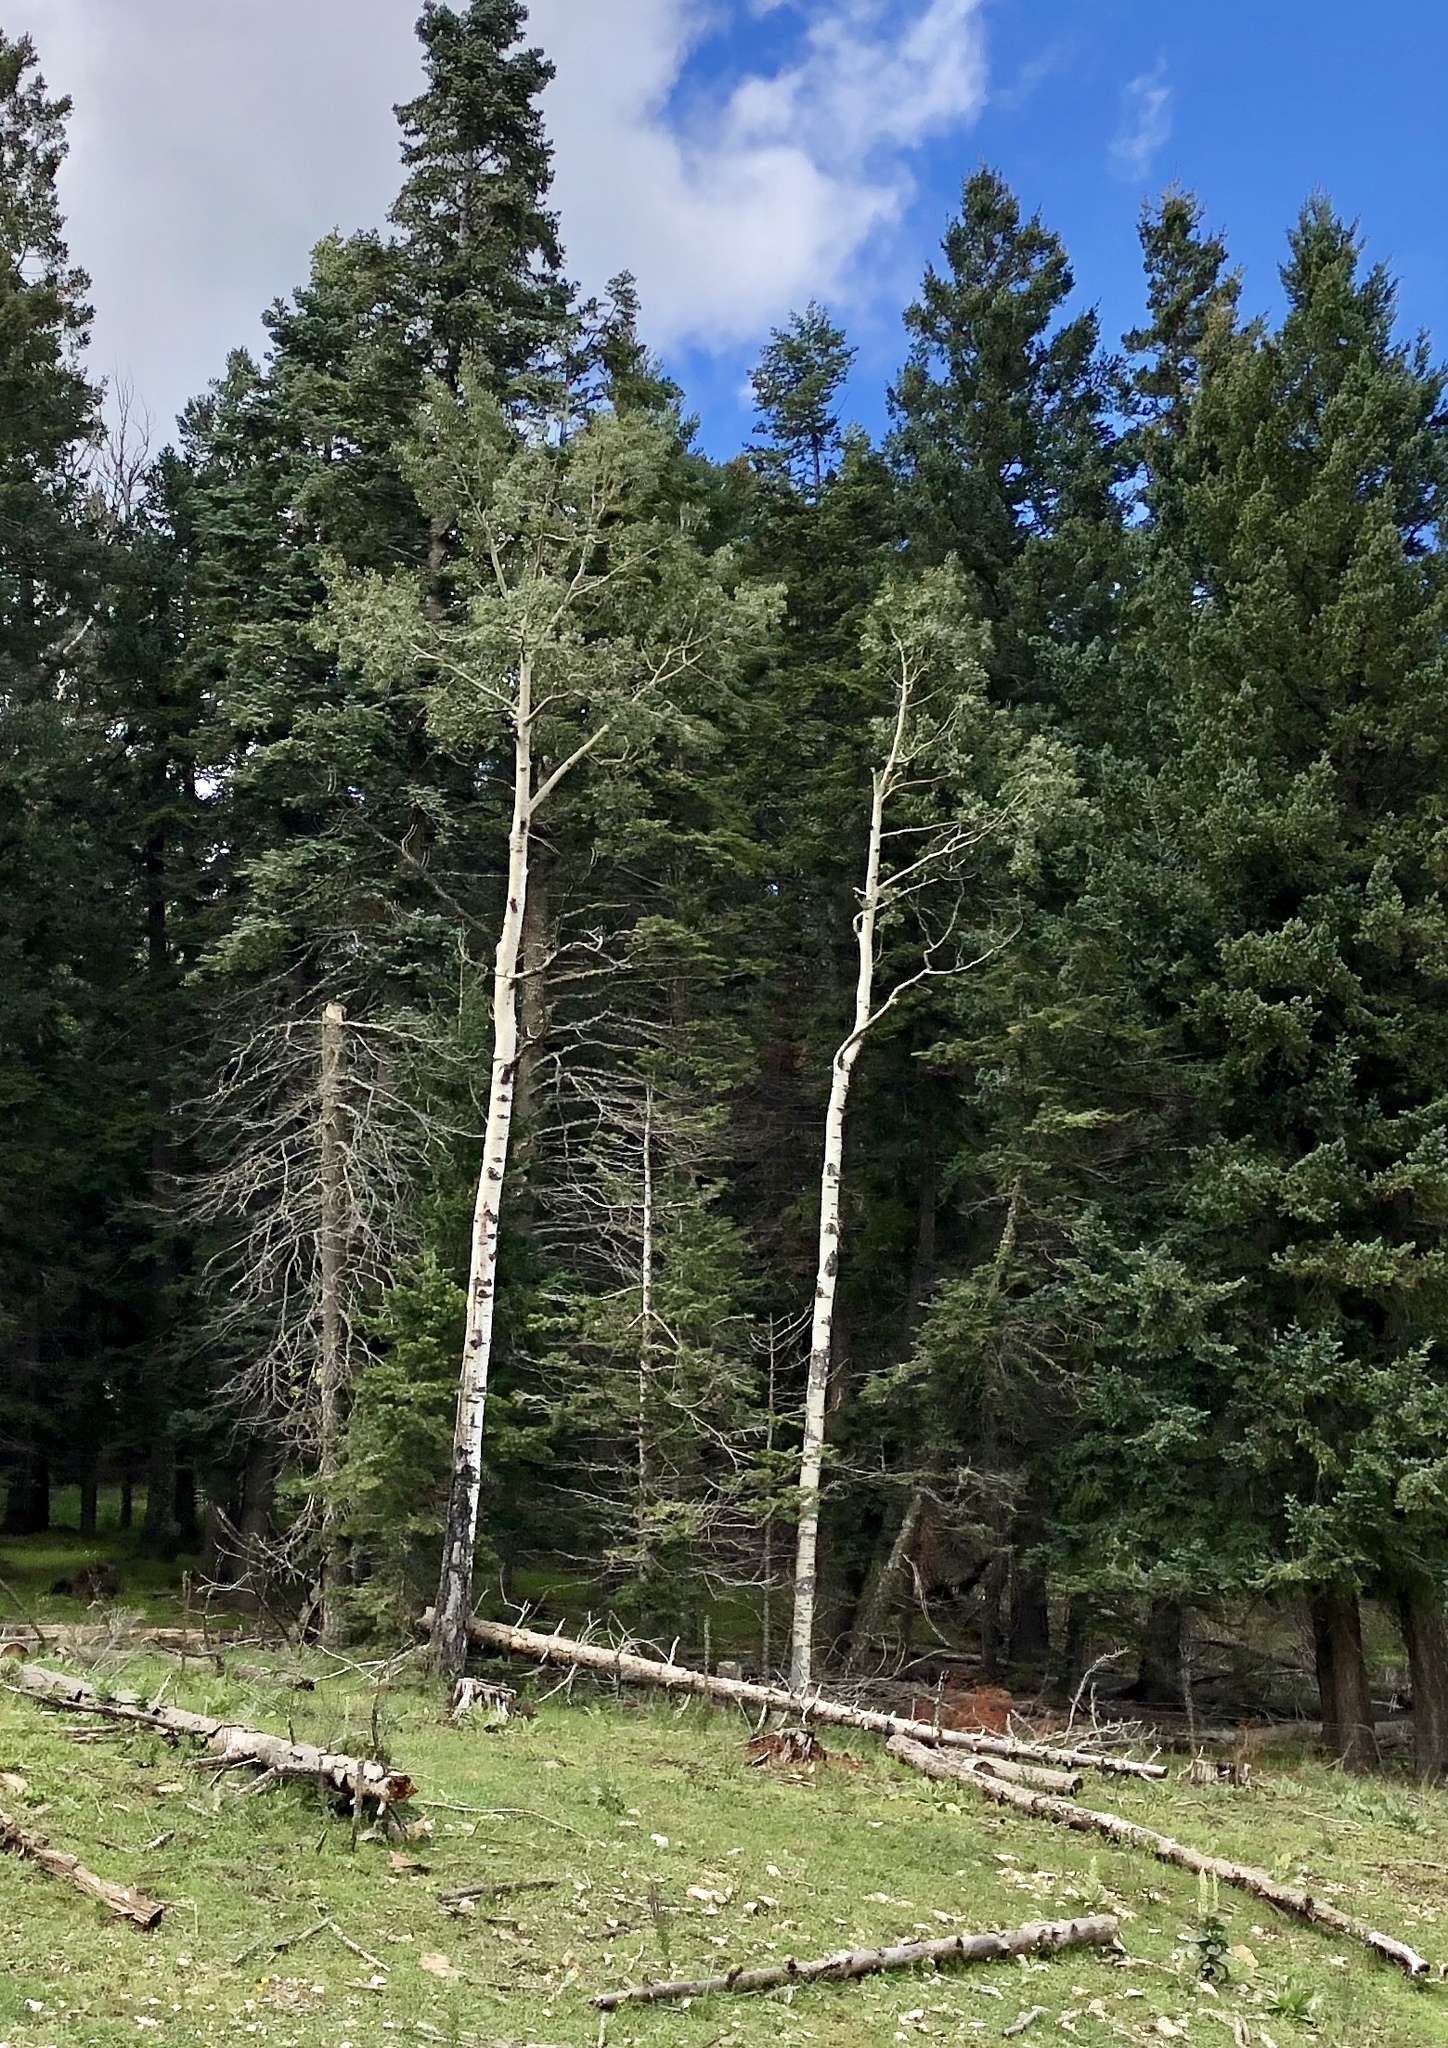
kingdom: Plantae
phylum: Tracheophyta
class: Magnoliopsida
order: Malpighiales
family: Salicaceae
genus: Populus
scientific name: Populus tremuloides
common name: Quaking aspen
